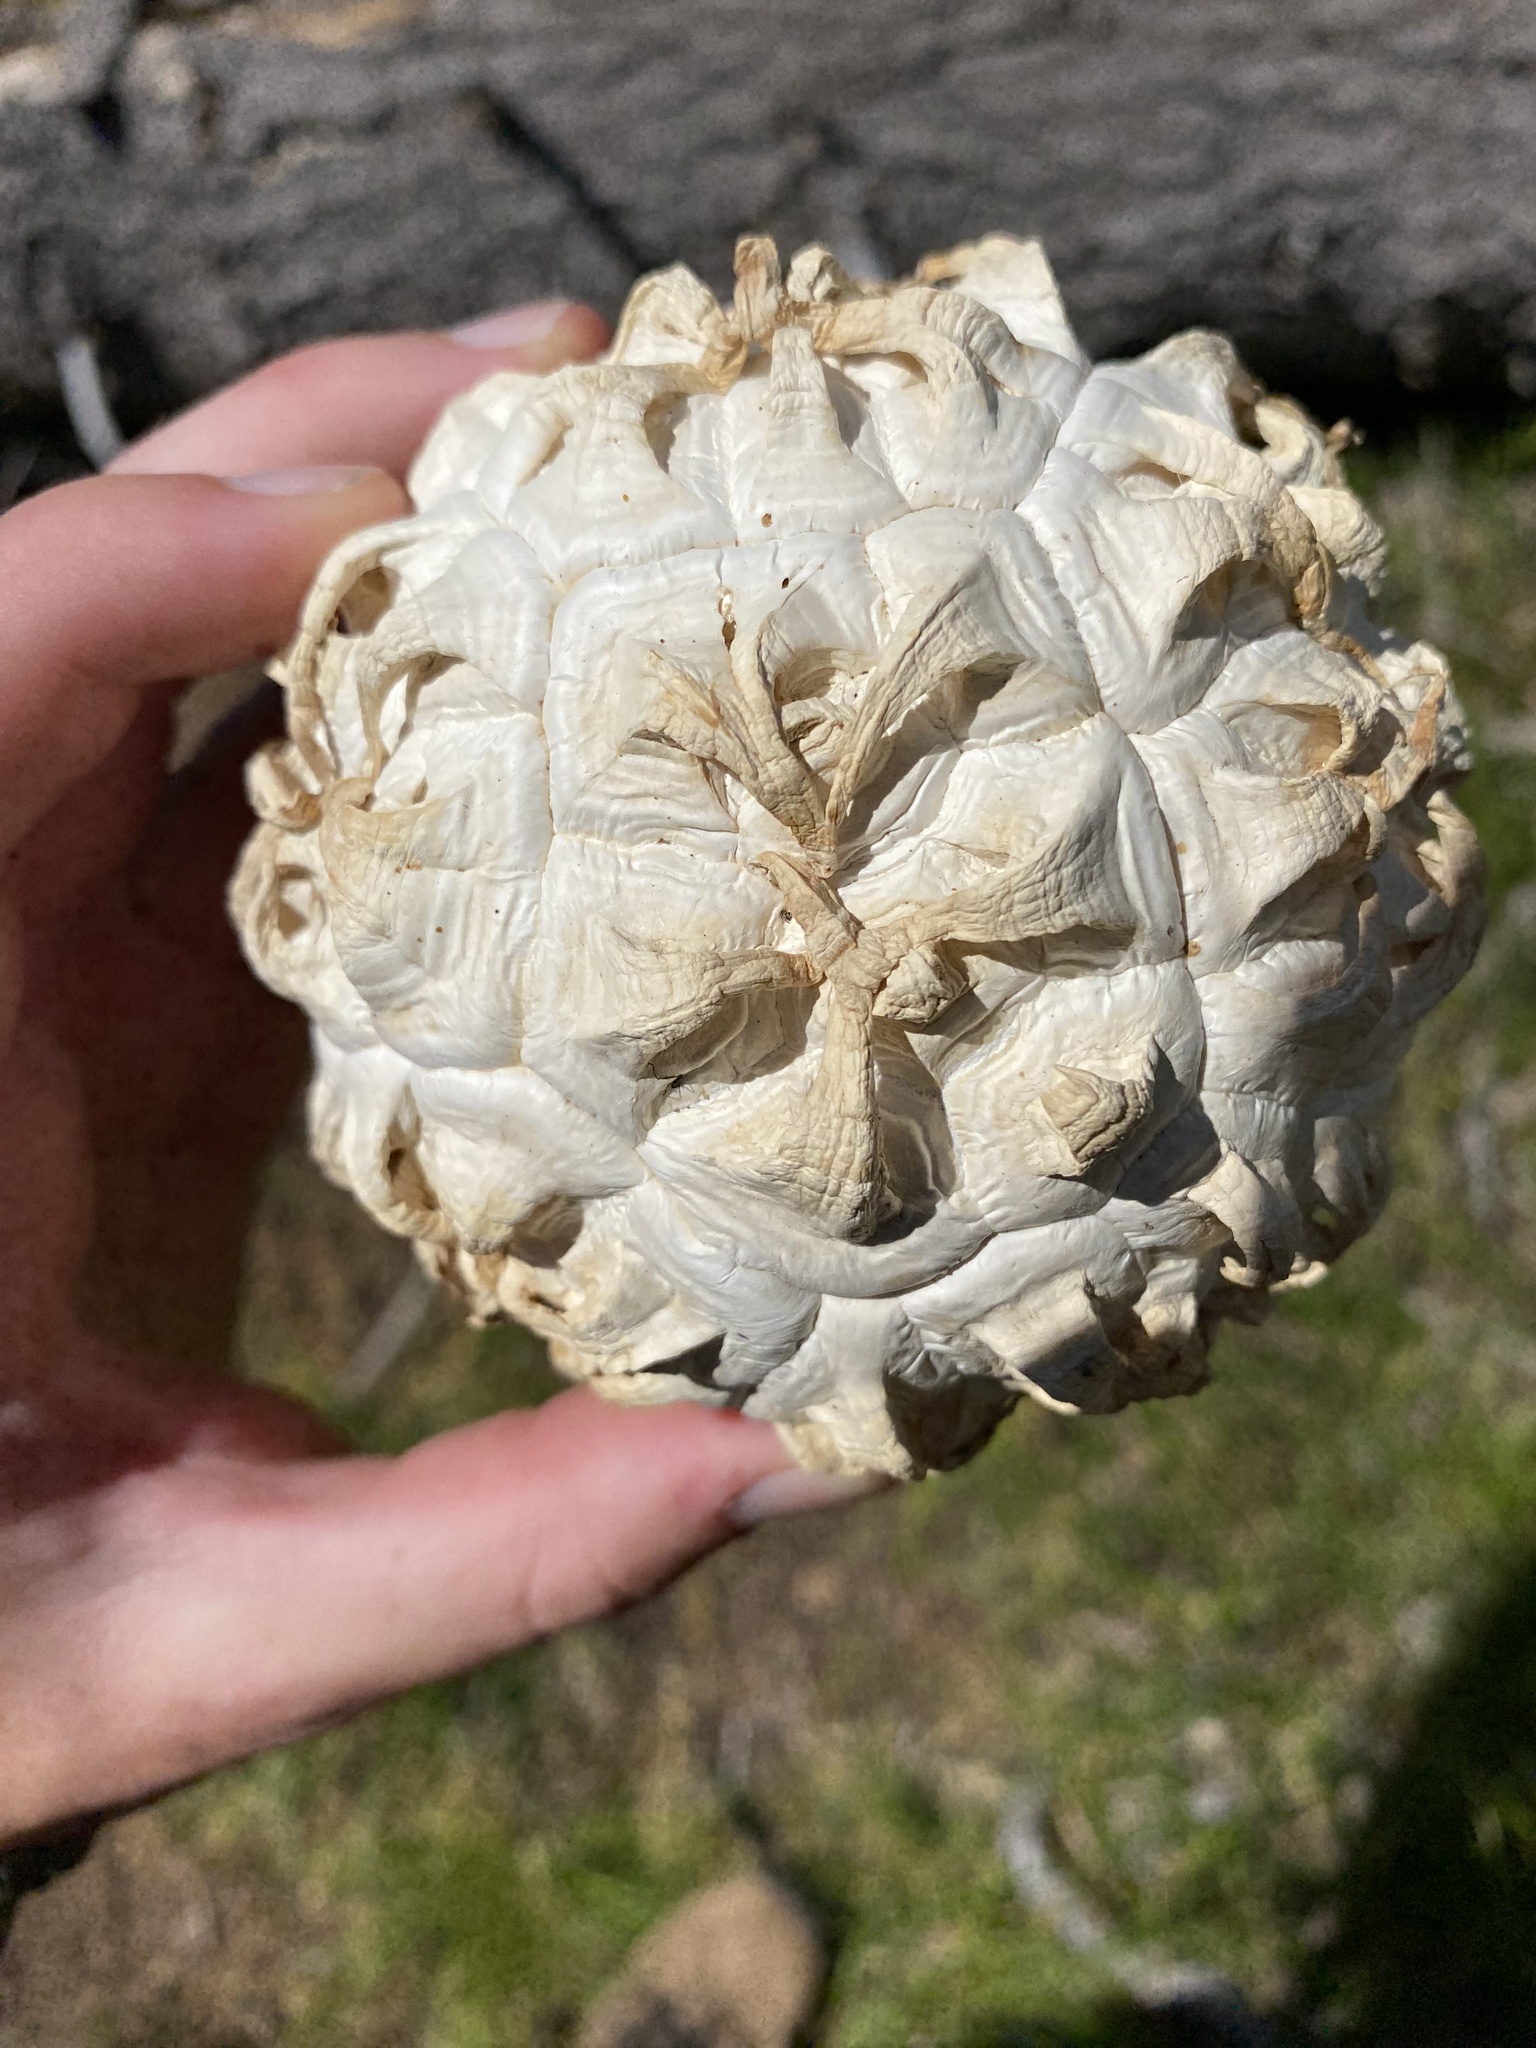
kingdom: Fungi
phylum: Basidiomycota
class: Agaricomycetes
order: Agaricales
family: Lycoperdaceae
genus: Calvatia
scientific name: Calvatia sculpta
